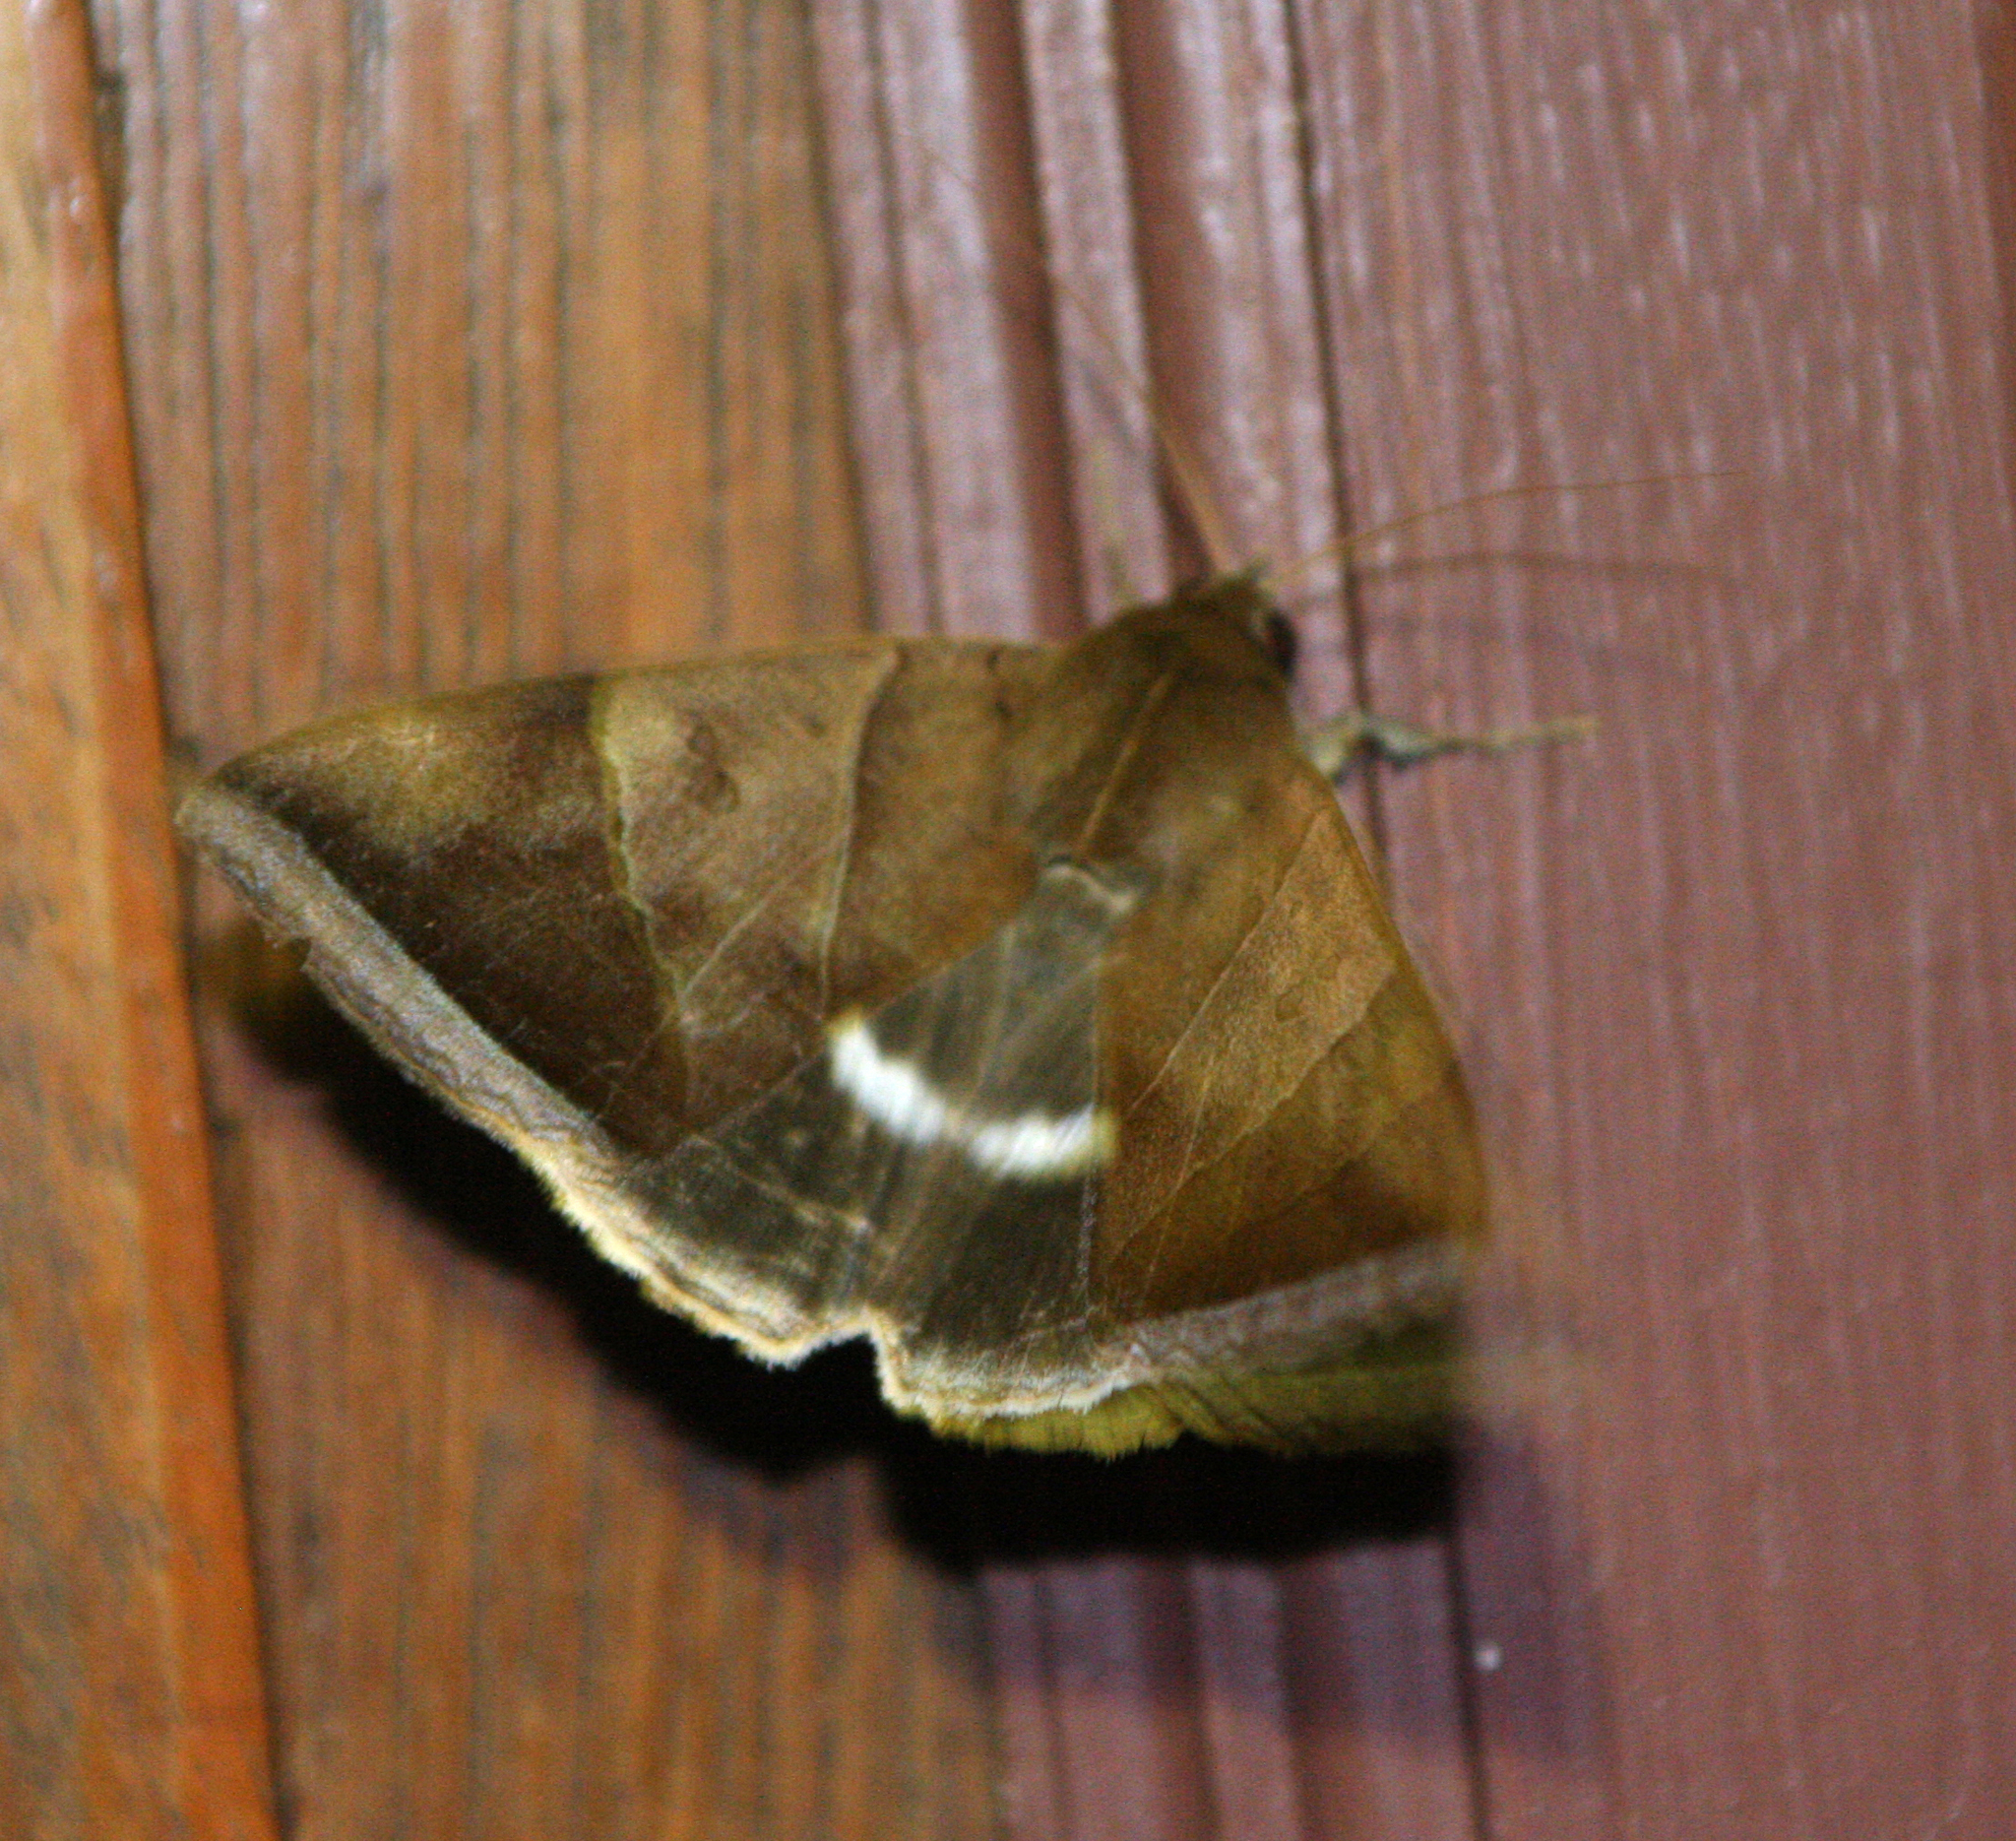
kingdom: Animalia
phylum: Arthropoda
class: Insecta
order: Lepidoptera
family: Erebidae
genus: Artena
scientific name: Artena dotata
